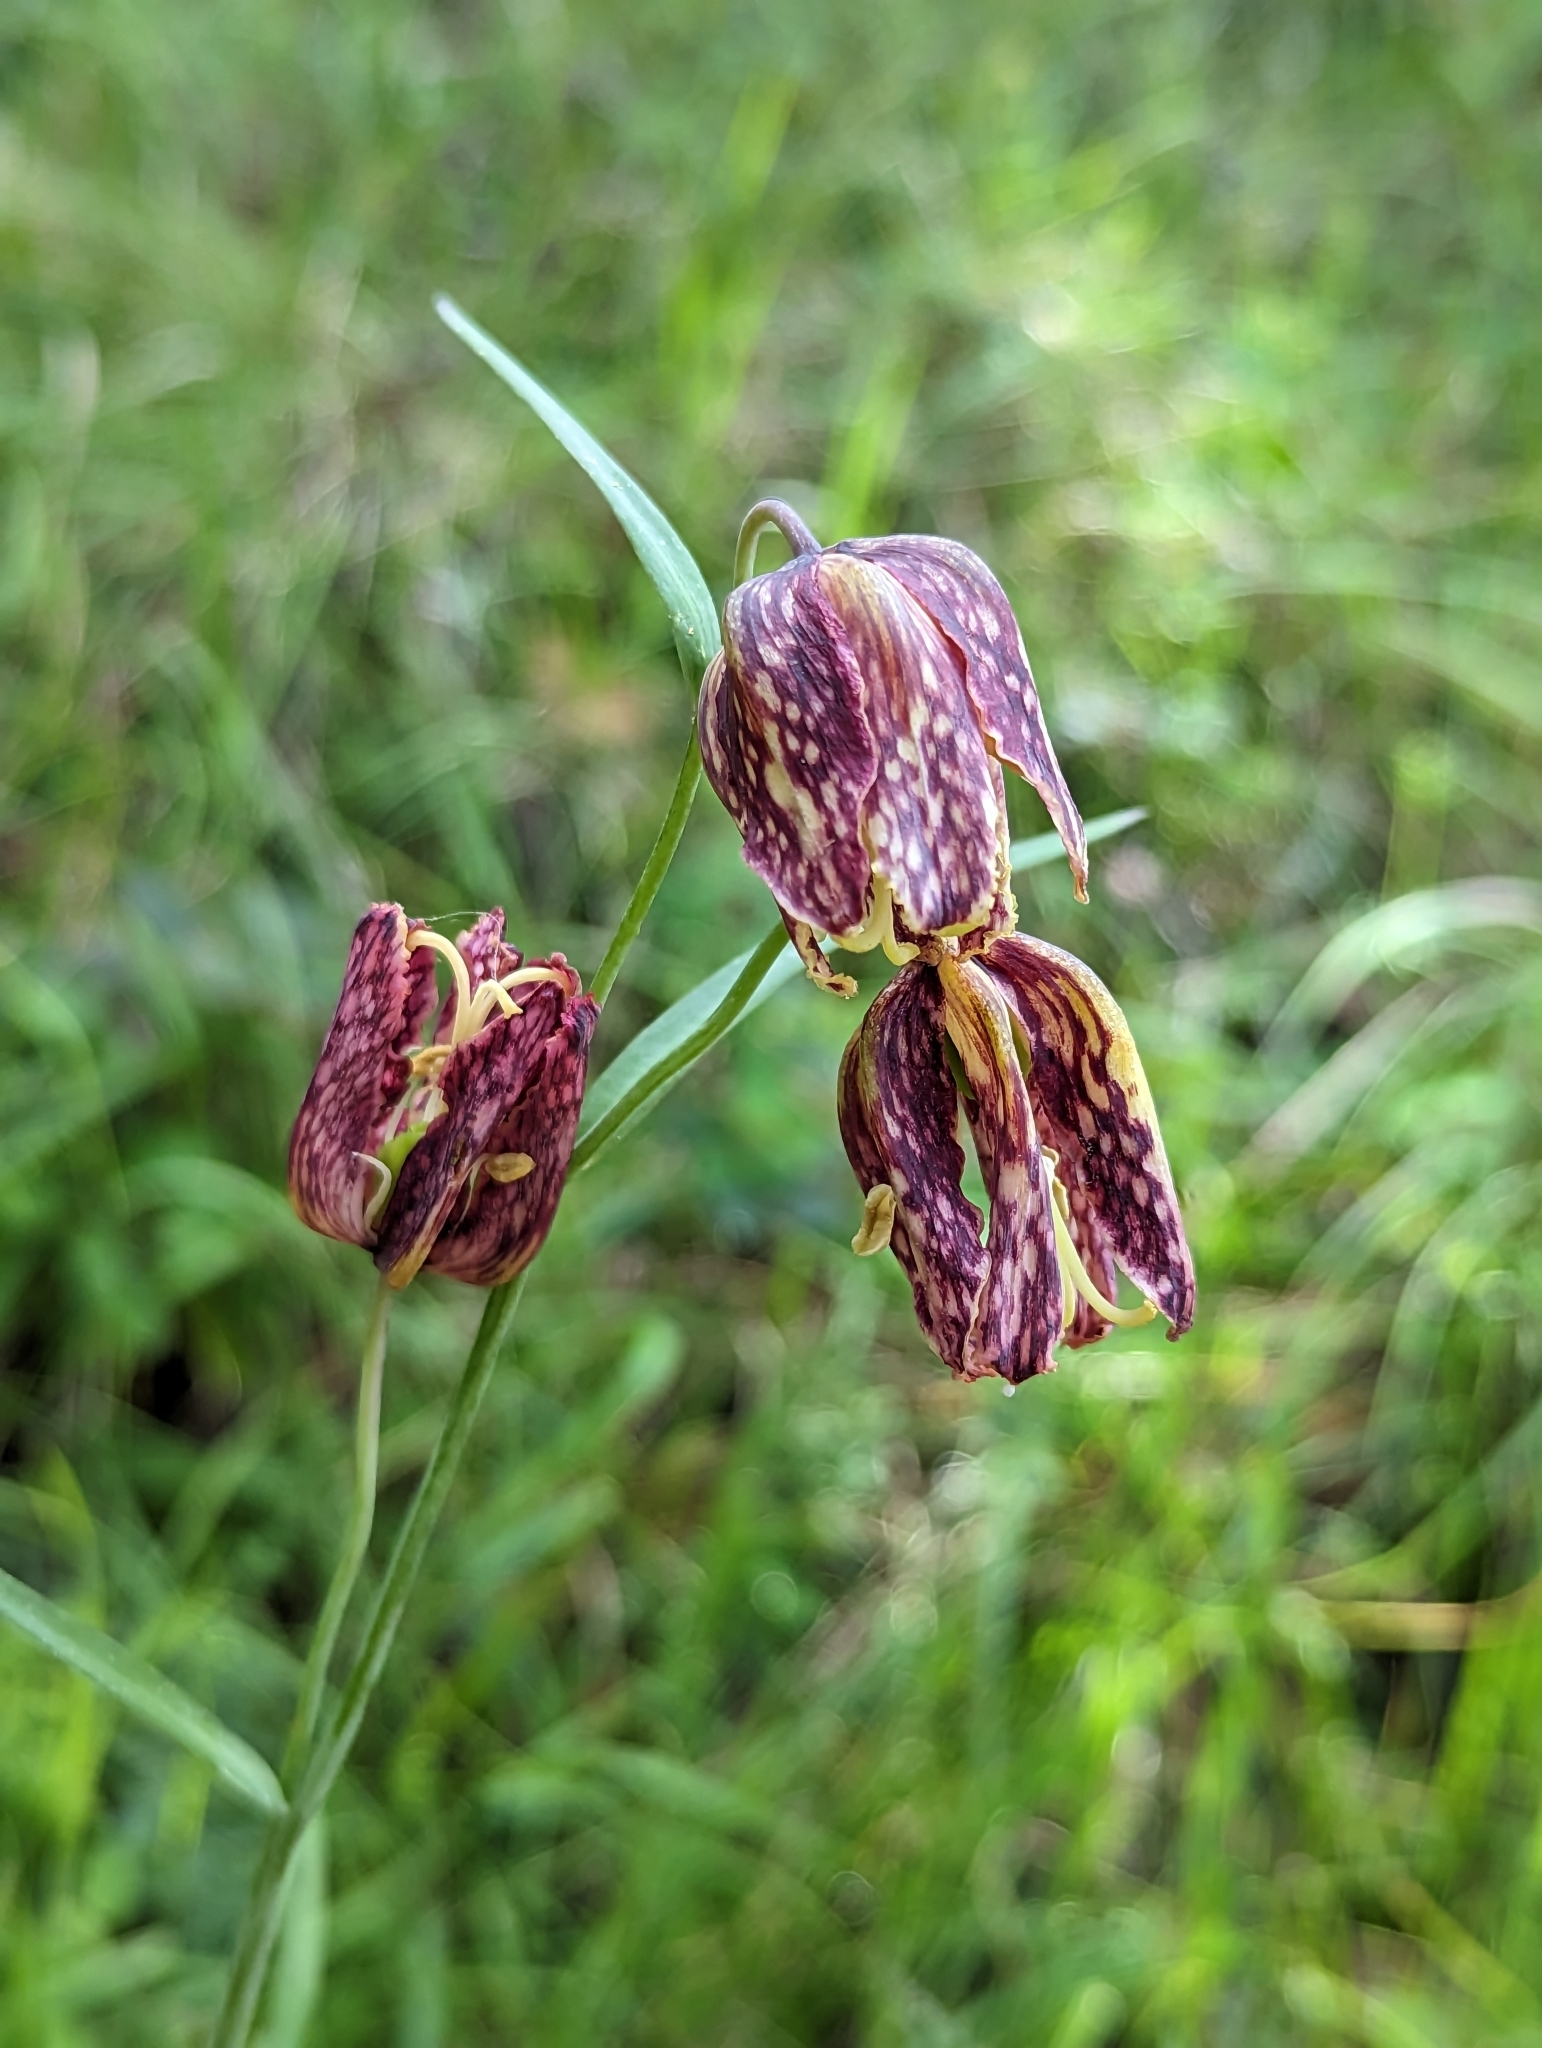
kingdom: Plantae
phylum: Tracheophyta
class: Liliopsida
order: Liliales
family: Liliaceae
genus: Fritillaria
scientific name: Fritillaria affinis
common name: Ojai fritillary
